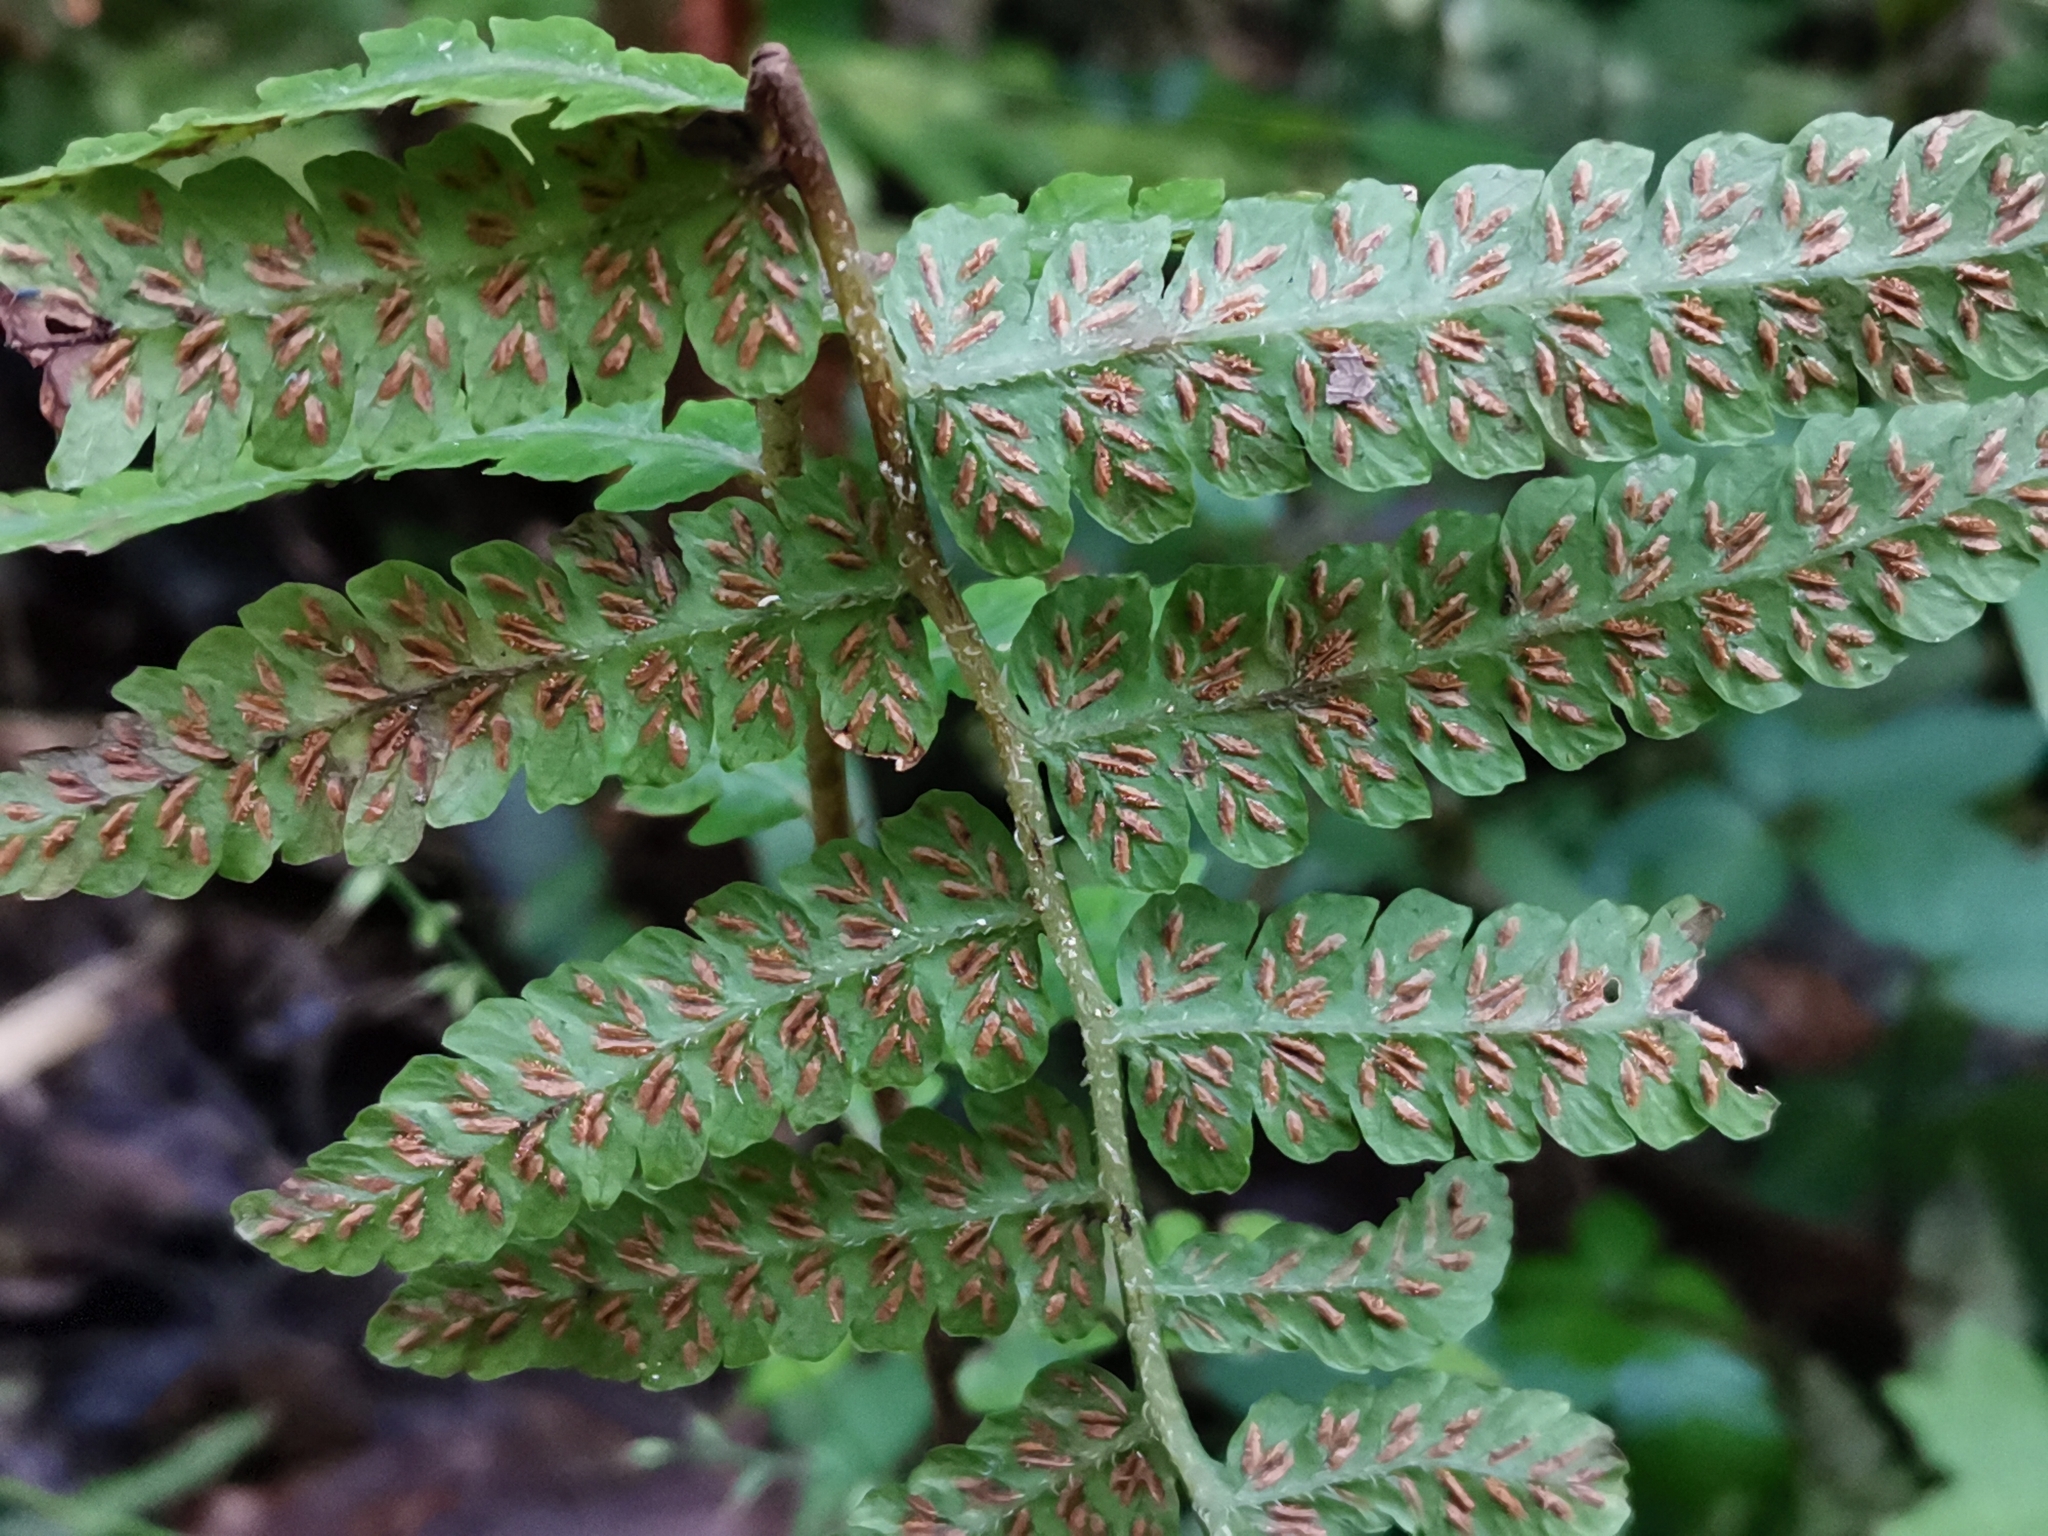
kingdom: Plantae
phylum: Tracheophyta
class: Polypodiopsida
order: Polypodiales
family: Athyriaceae
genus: Deparia
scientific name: Deparia petersenii
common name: Japanese false spleenwort
